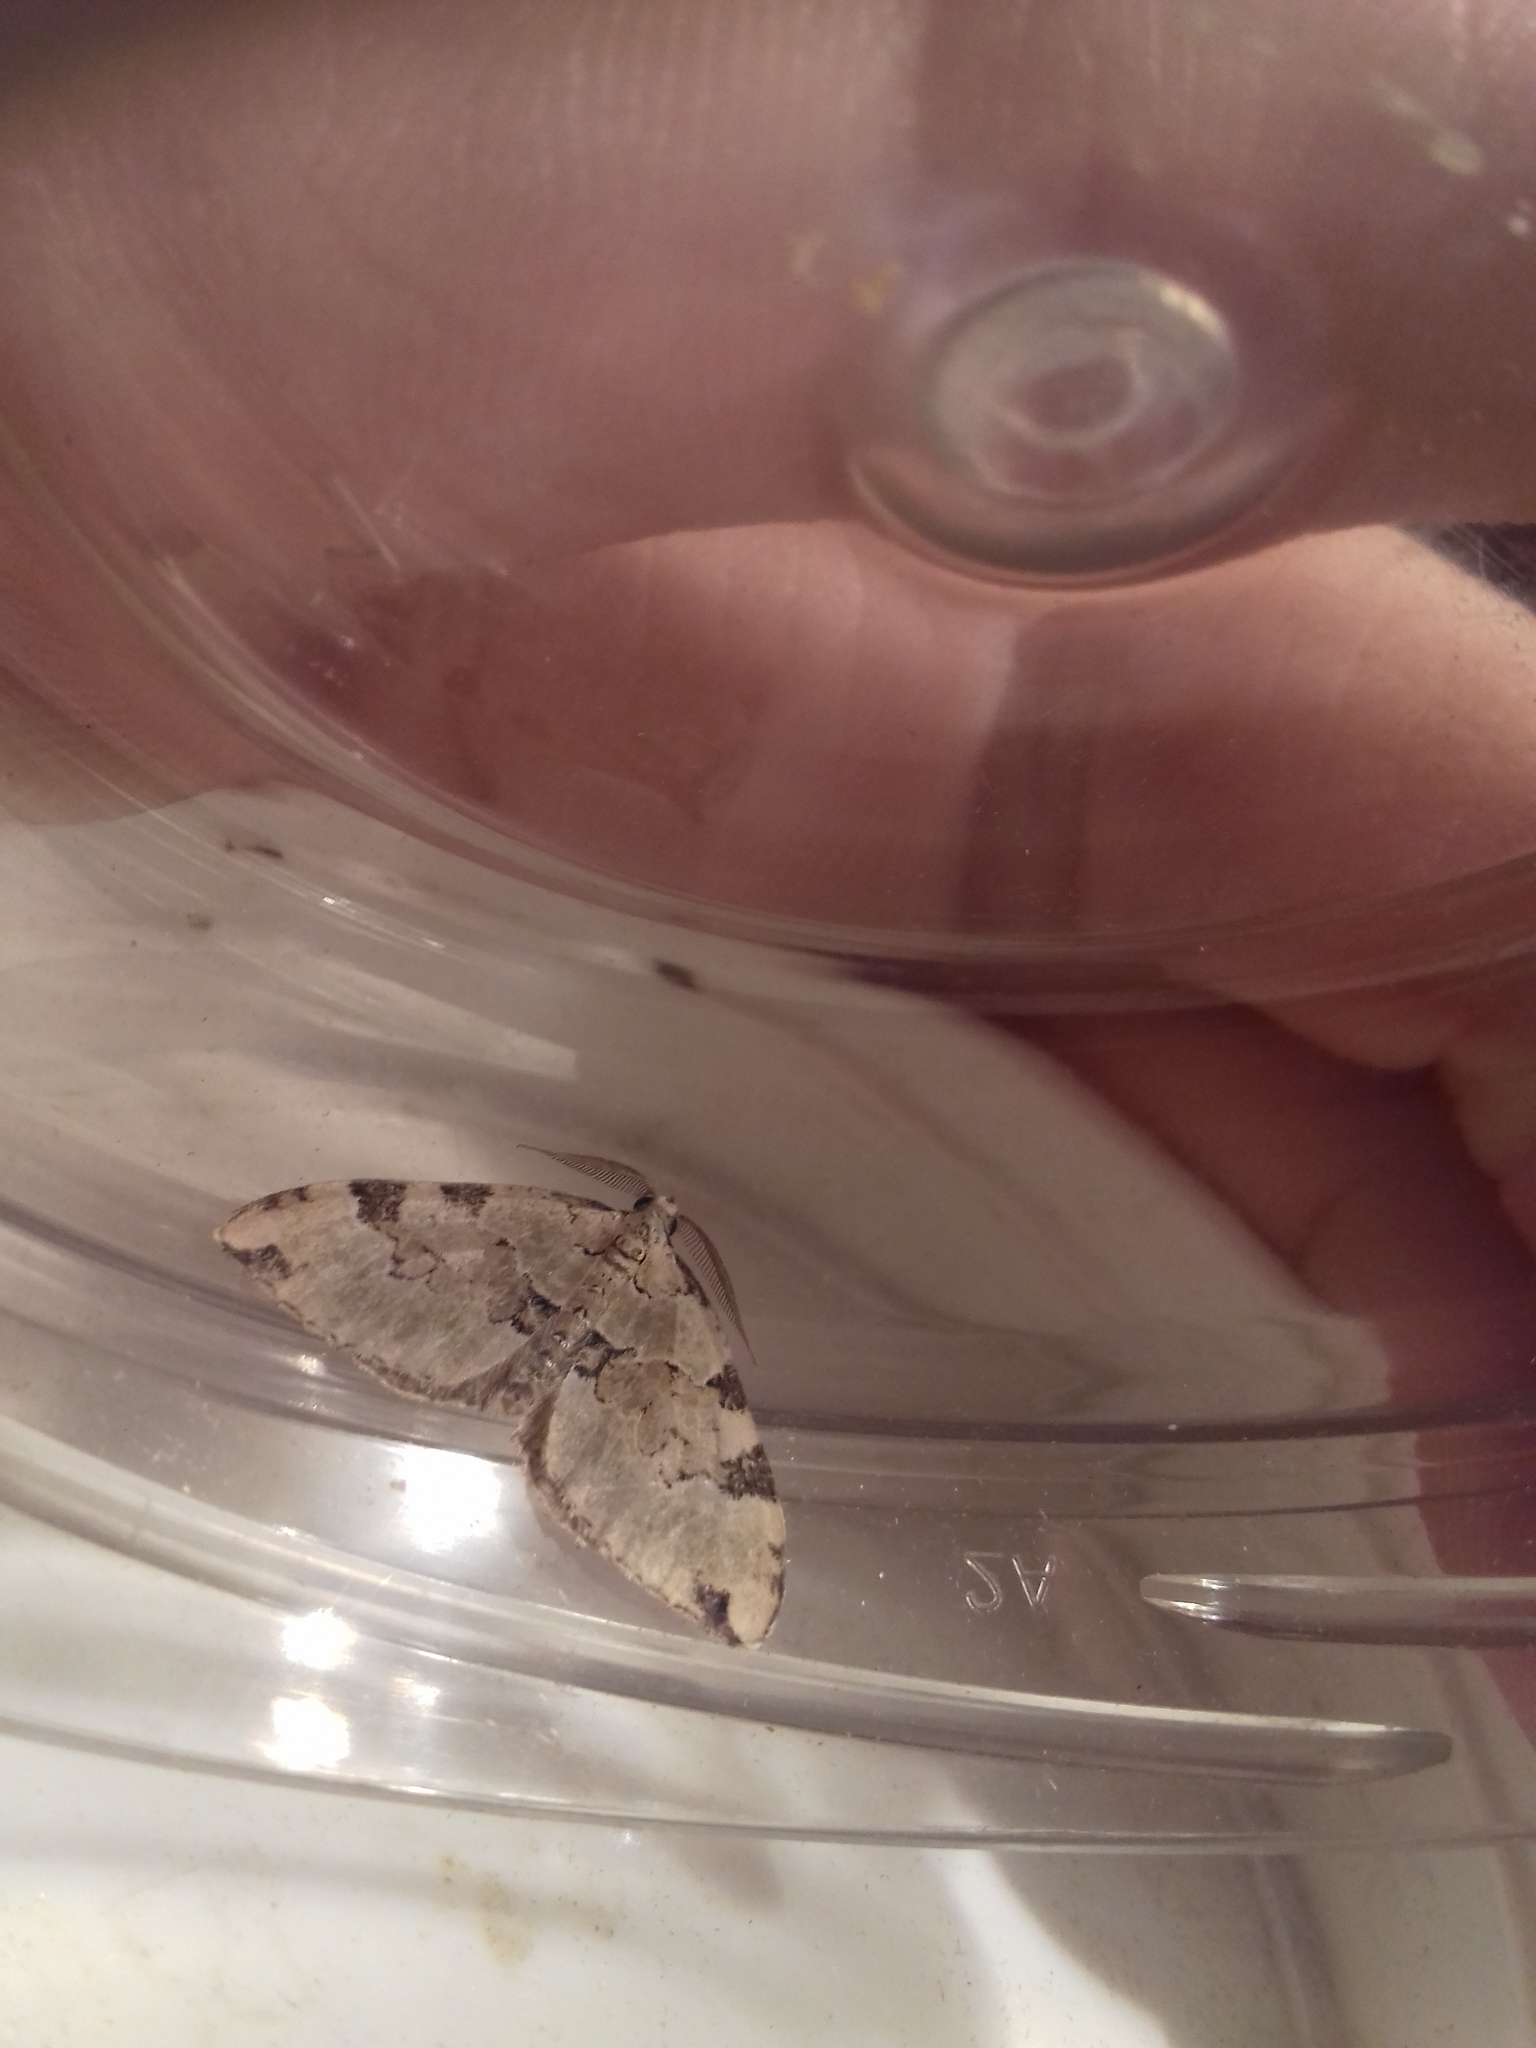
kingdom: Animalia
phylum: Arthropoda
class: Insecta
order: Lepidoptera
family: Geometridae
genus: Colostygia
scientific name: Colostygia pectinataria
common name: Green carpet
